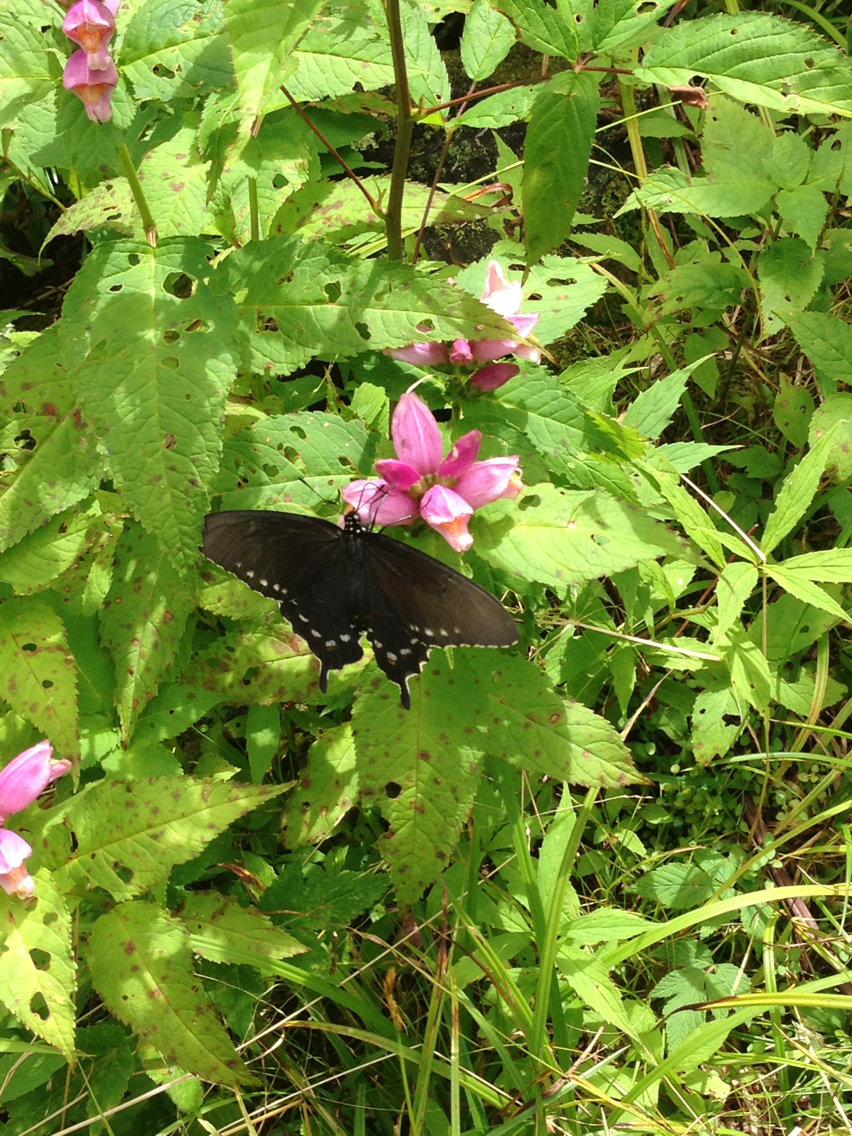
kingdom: Animalia
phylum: Arthropoda
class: Insecta
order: Lepidoptera
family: Papilionidae
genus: Battus
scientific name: Battus philenor
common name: Pipevine swallowtail
